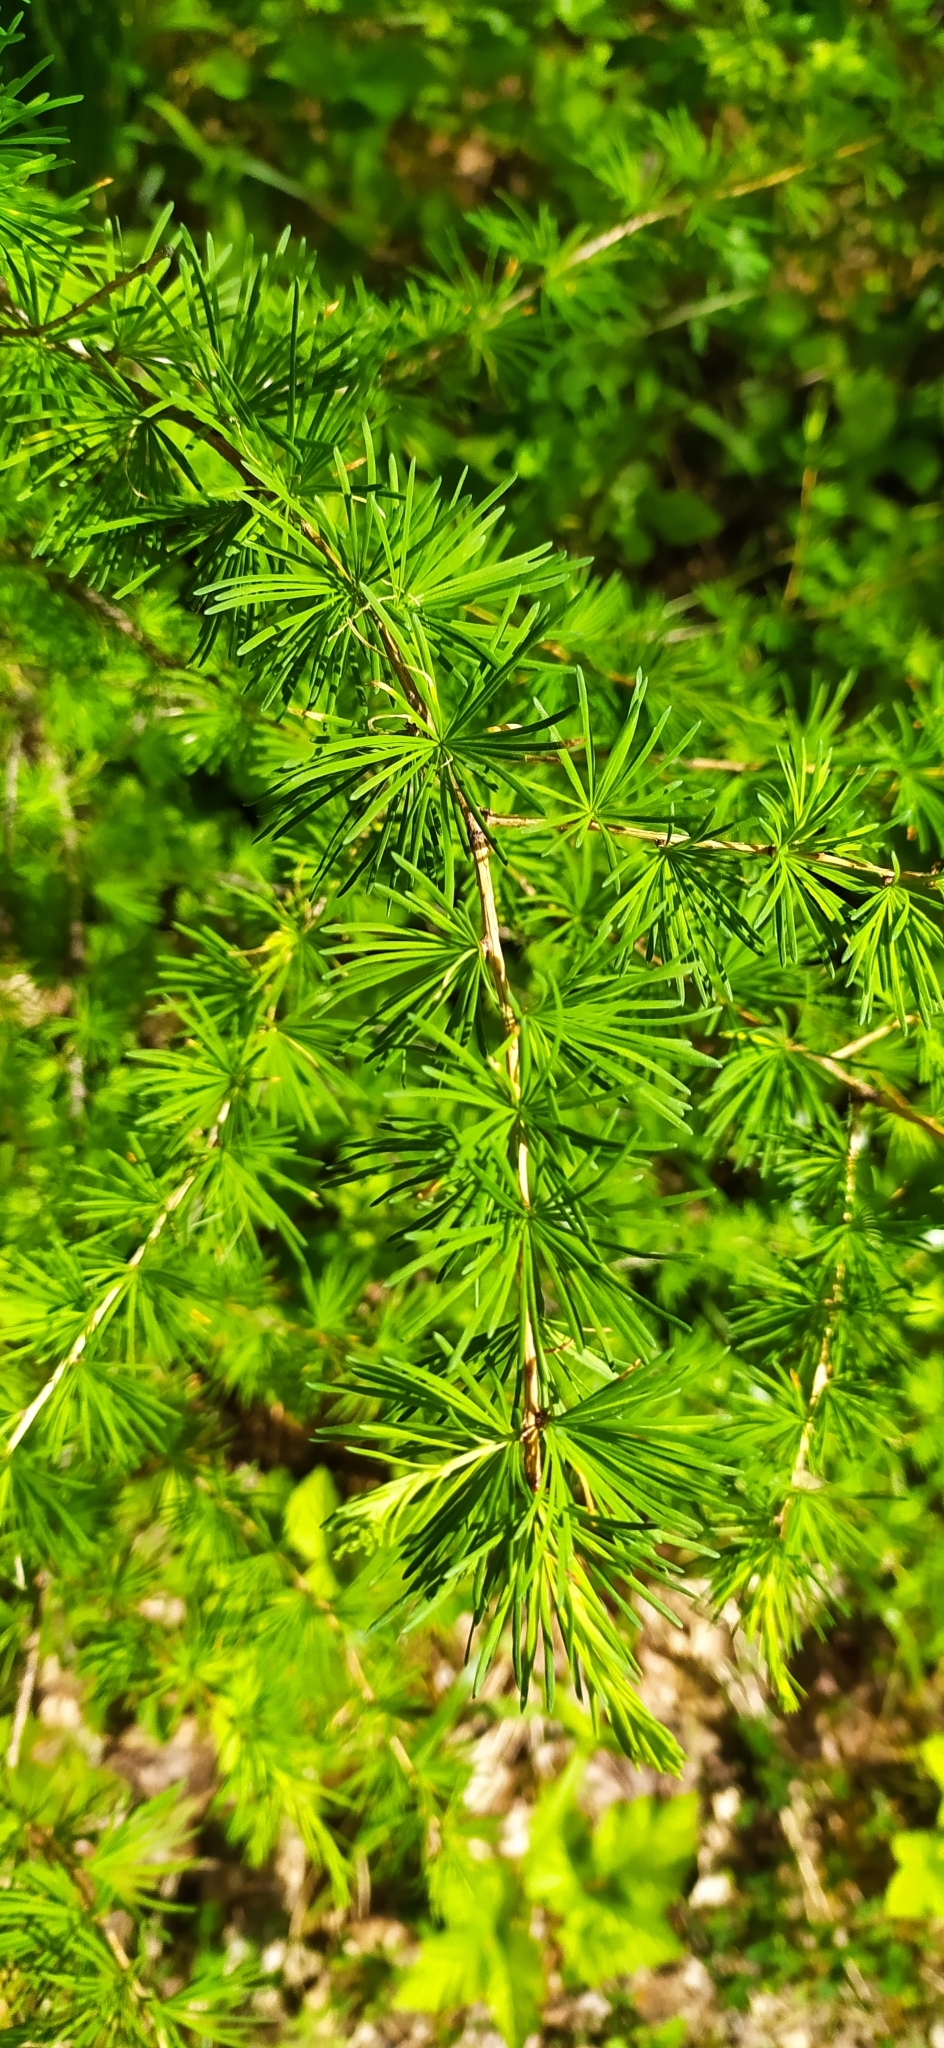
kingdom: Plantae
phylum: Tracheophyta
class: Pinopsida
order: Pinales
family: Pinaceae
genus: Larix
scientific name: Larix sibirica
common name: Siberian larch
